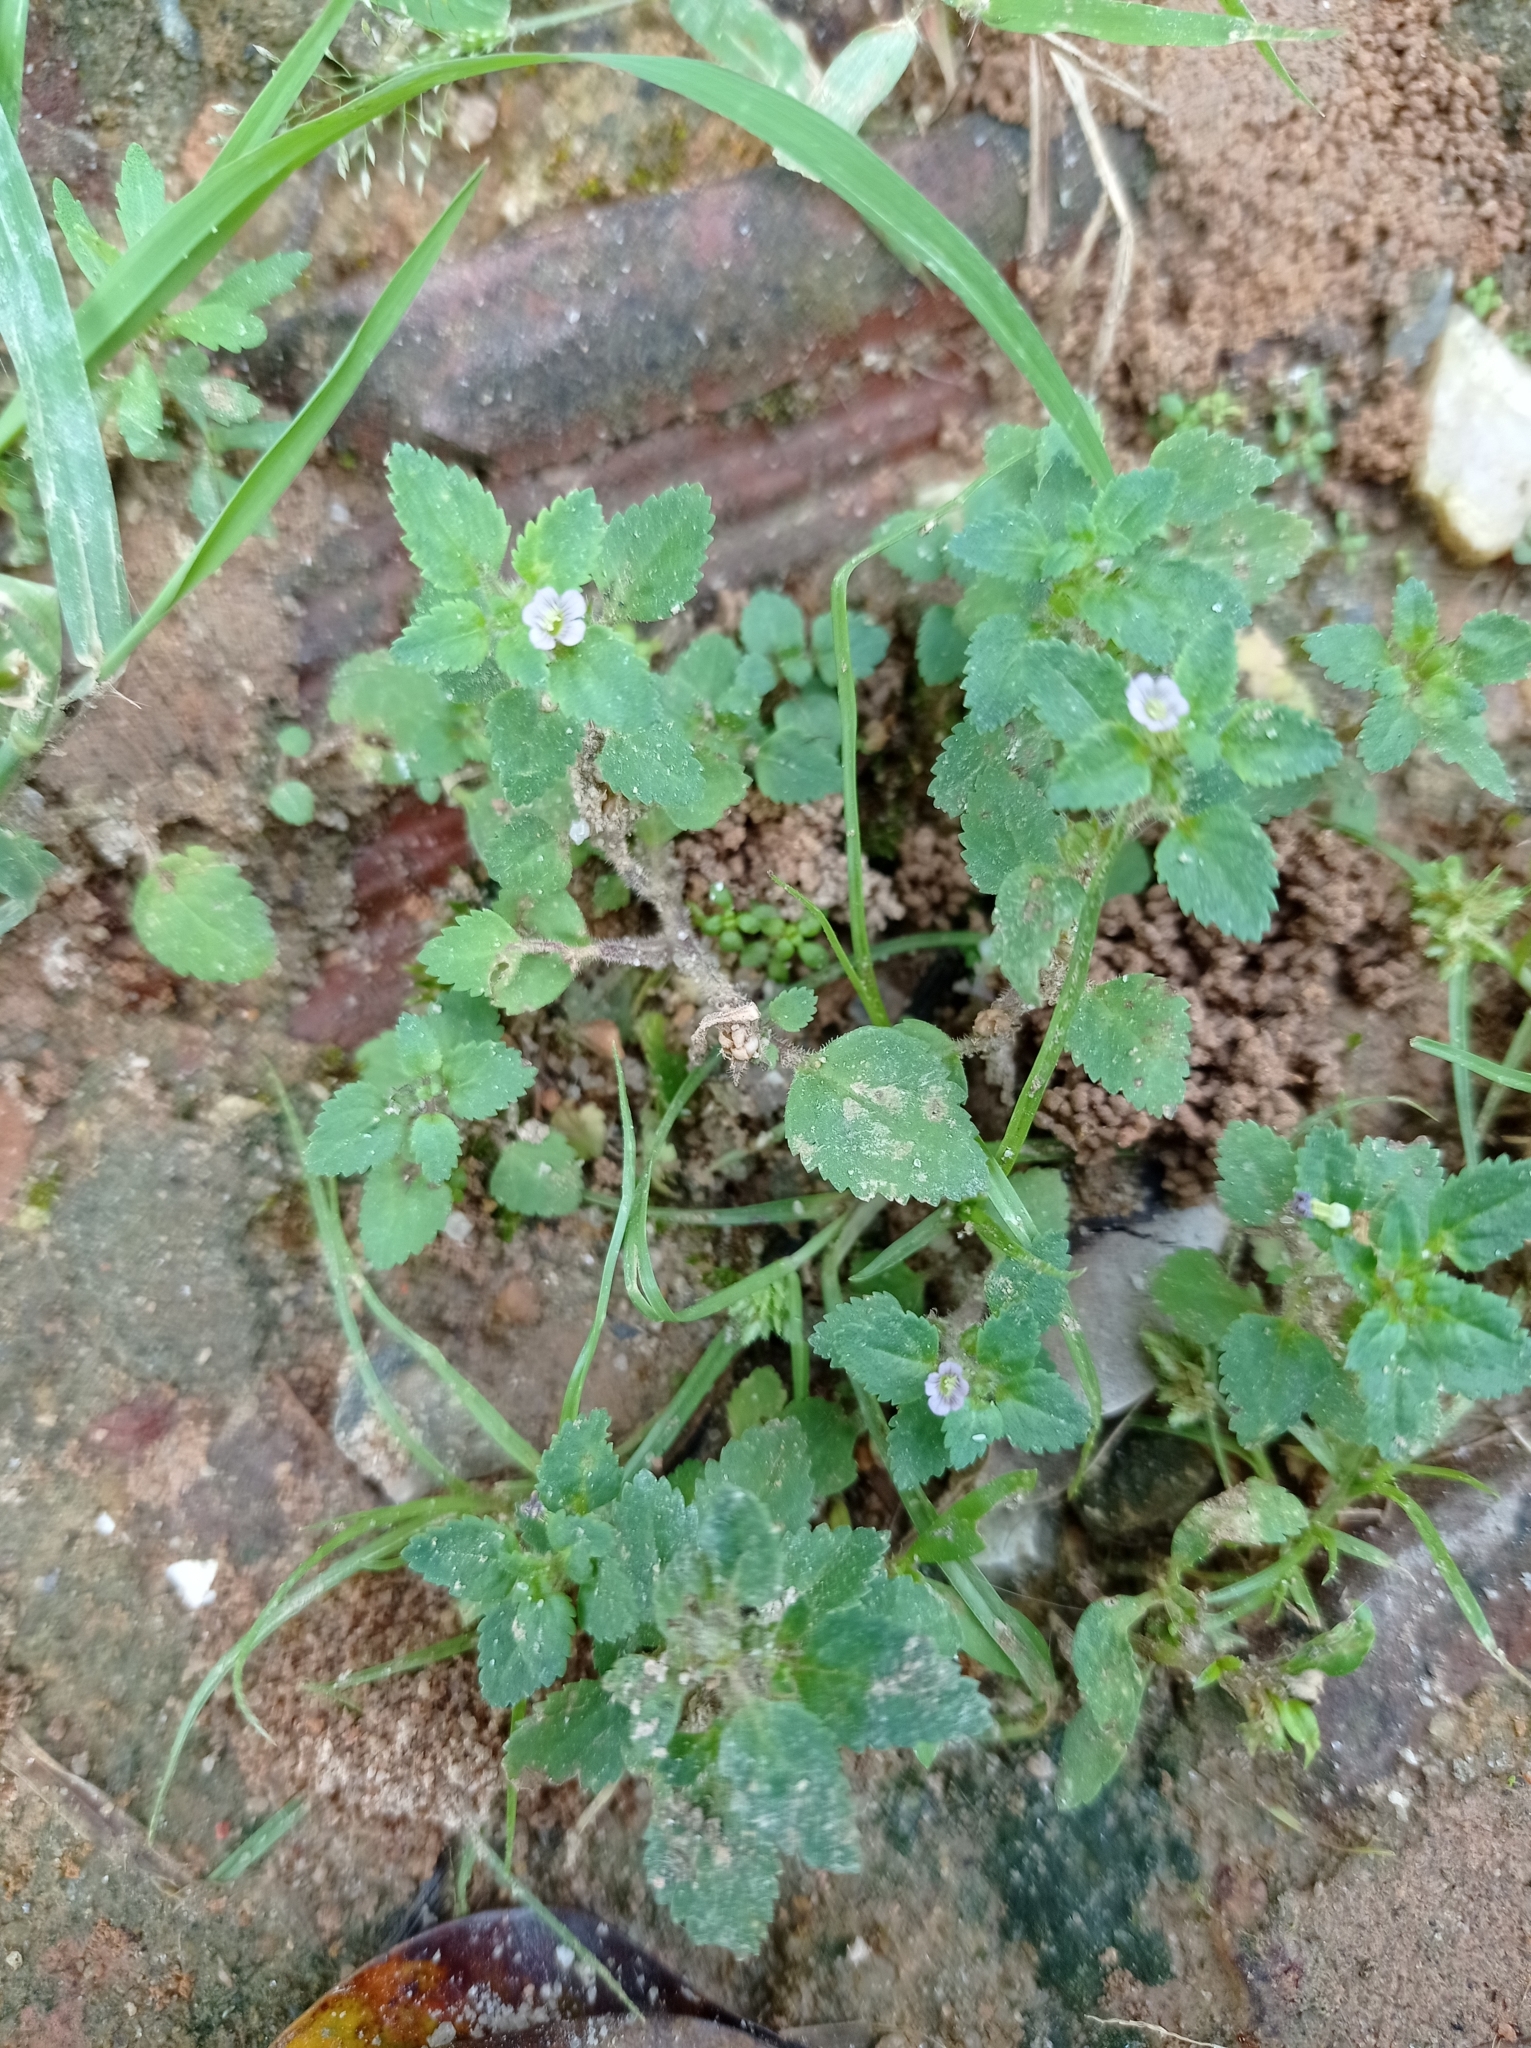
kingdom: Plantae
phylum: Tracheophyta
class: Magnoliopsida
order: Lamiales
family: Plantaginaceae
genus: Stemodia
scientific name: Stemodia verticillata
